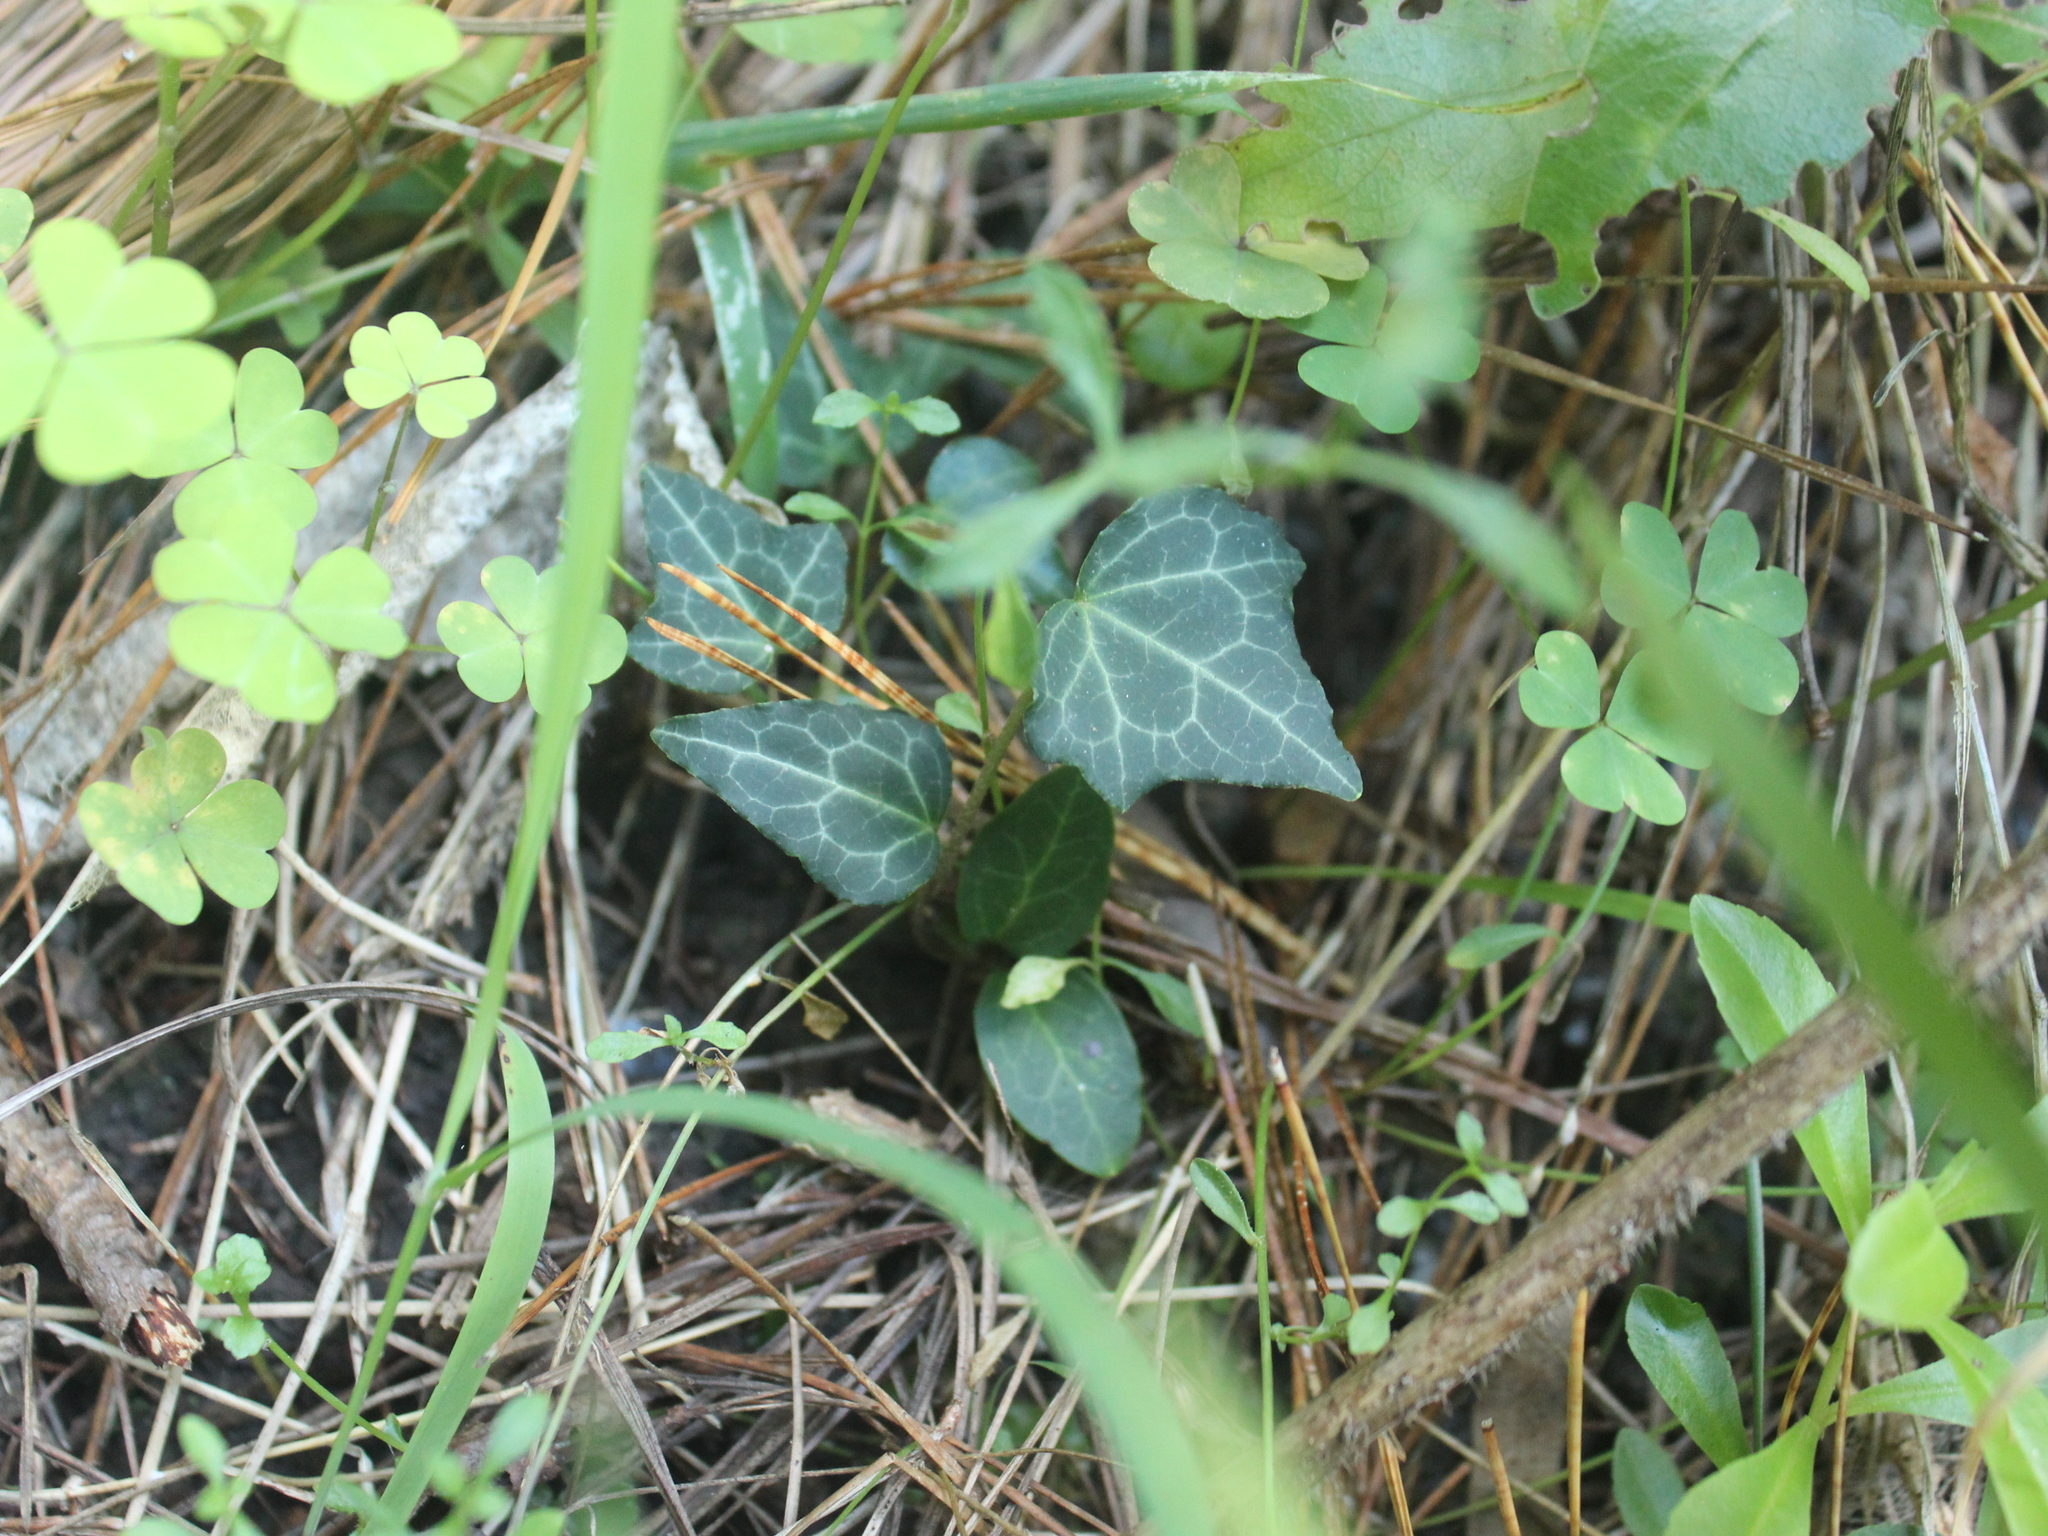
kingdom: Plantae
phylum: Tracheophyta
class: Magnoliopsida
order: Apiales
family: Araliaceae
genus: Hedera
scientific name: Hedera helix
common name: Ivy
